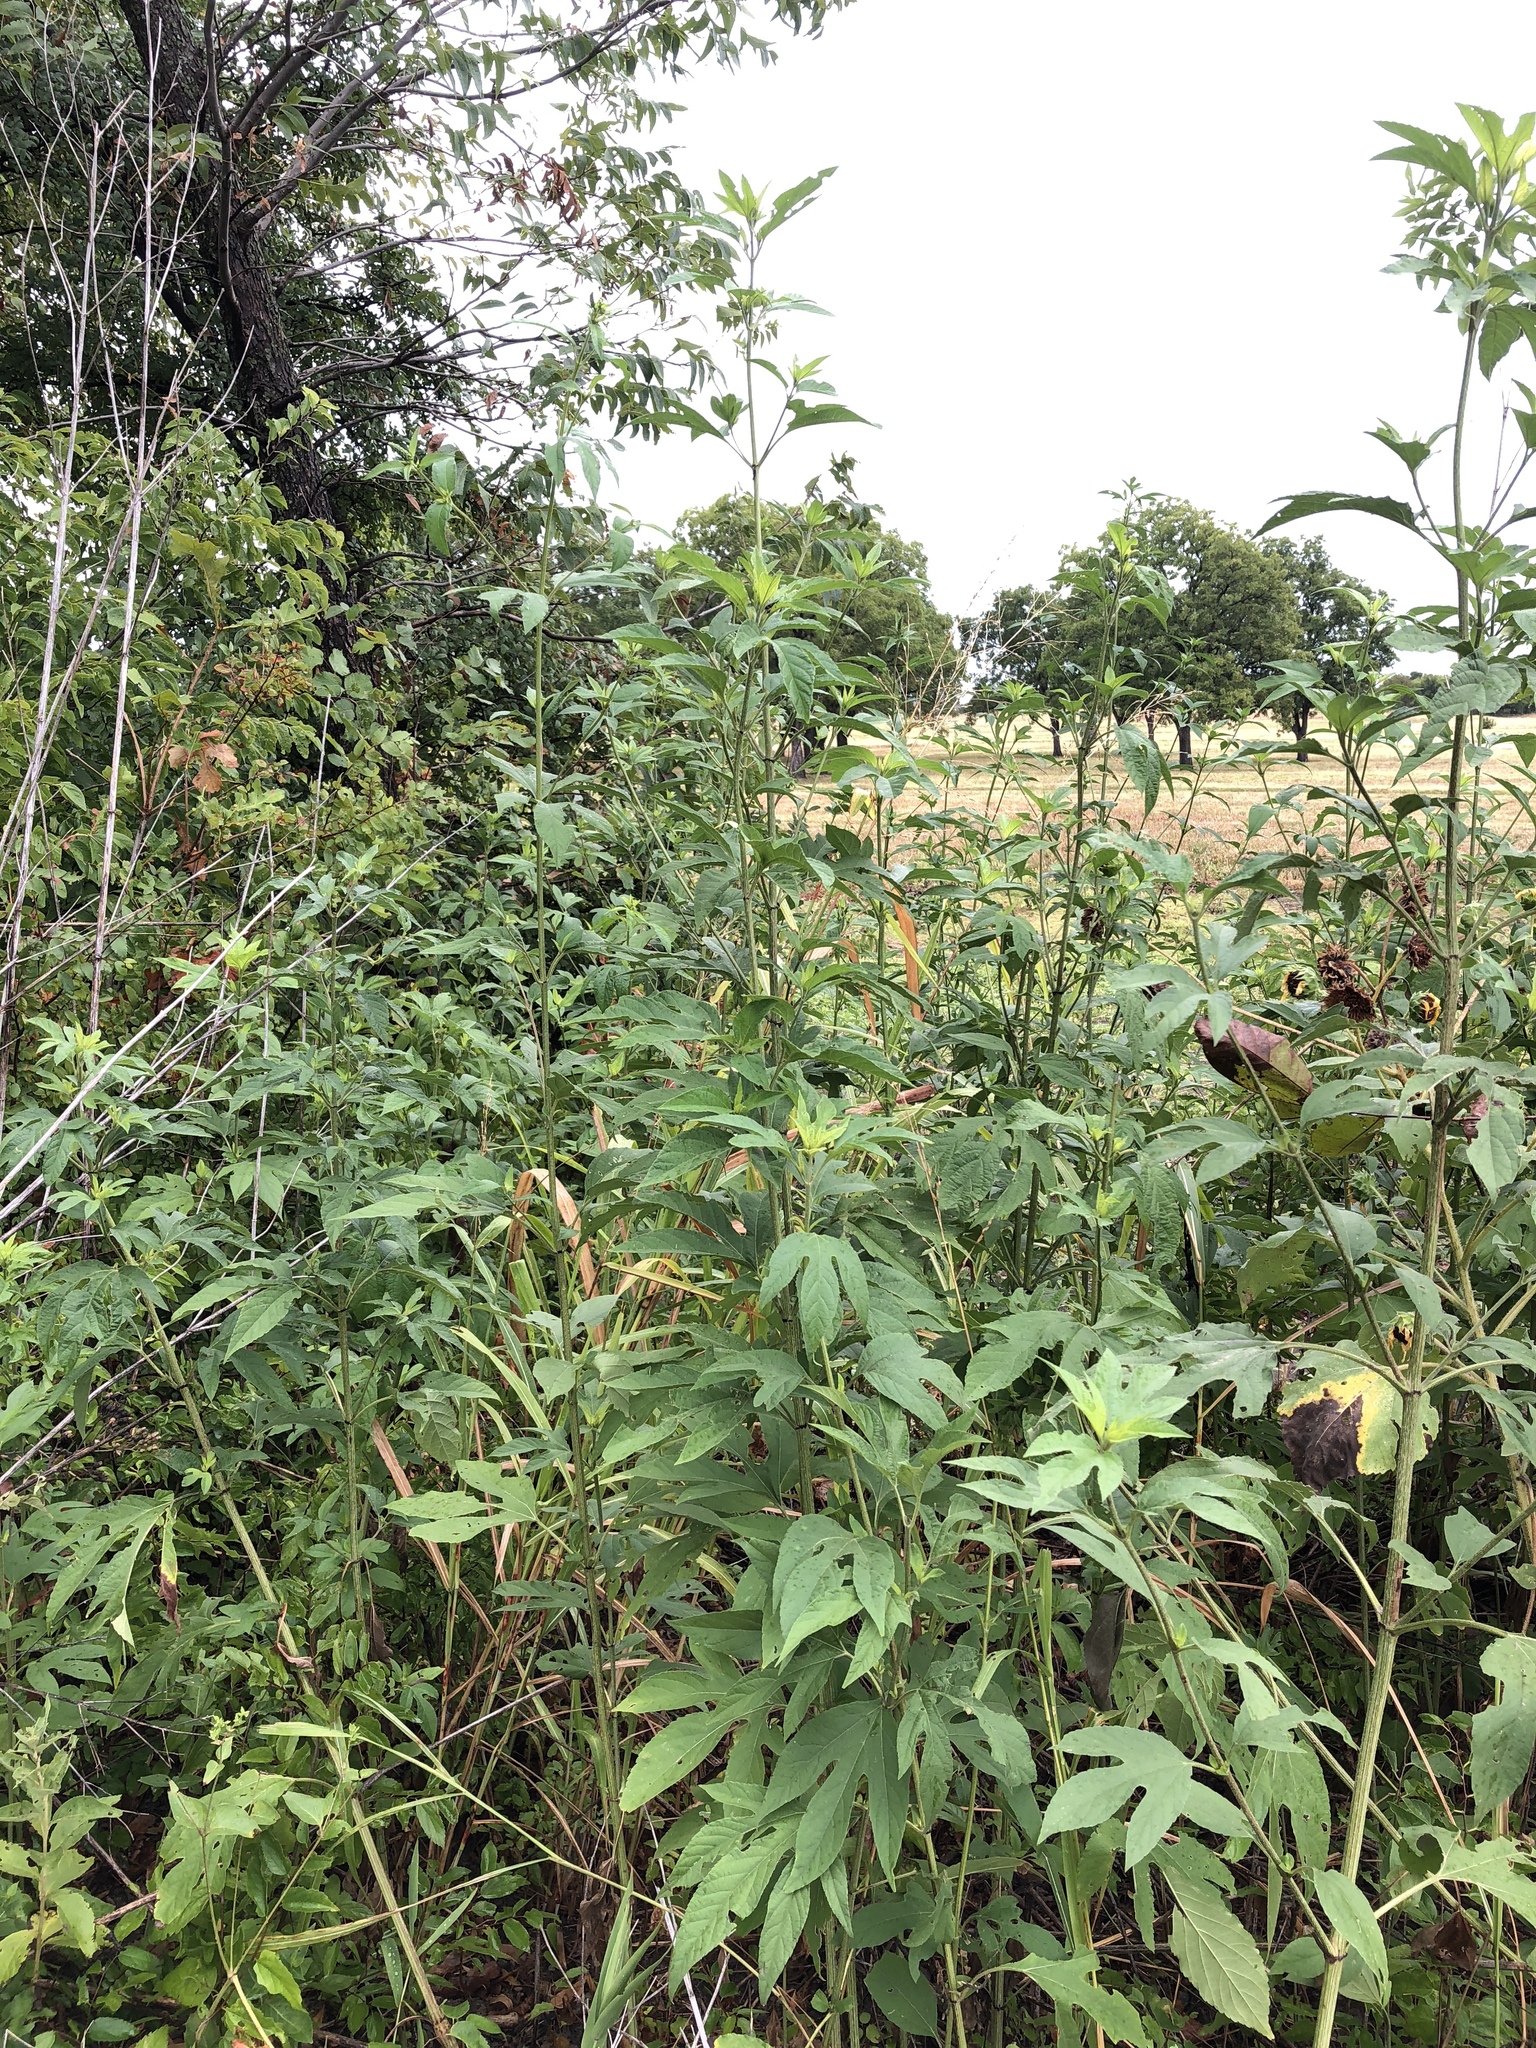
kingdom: Plantae
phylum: Tracheophyta
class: Magnoliopsida
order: Asterales
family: Asteraceae
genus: Ambrosia
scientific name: Ambrosia trifida
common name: Giant ragweed
